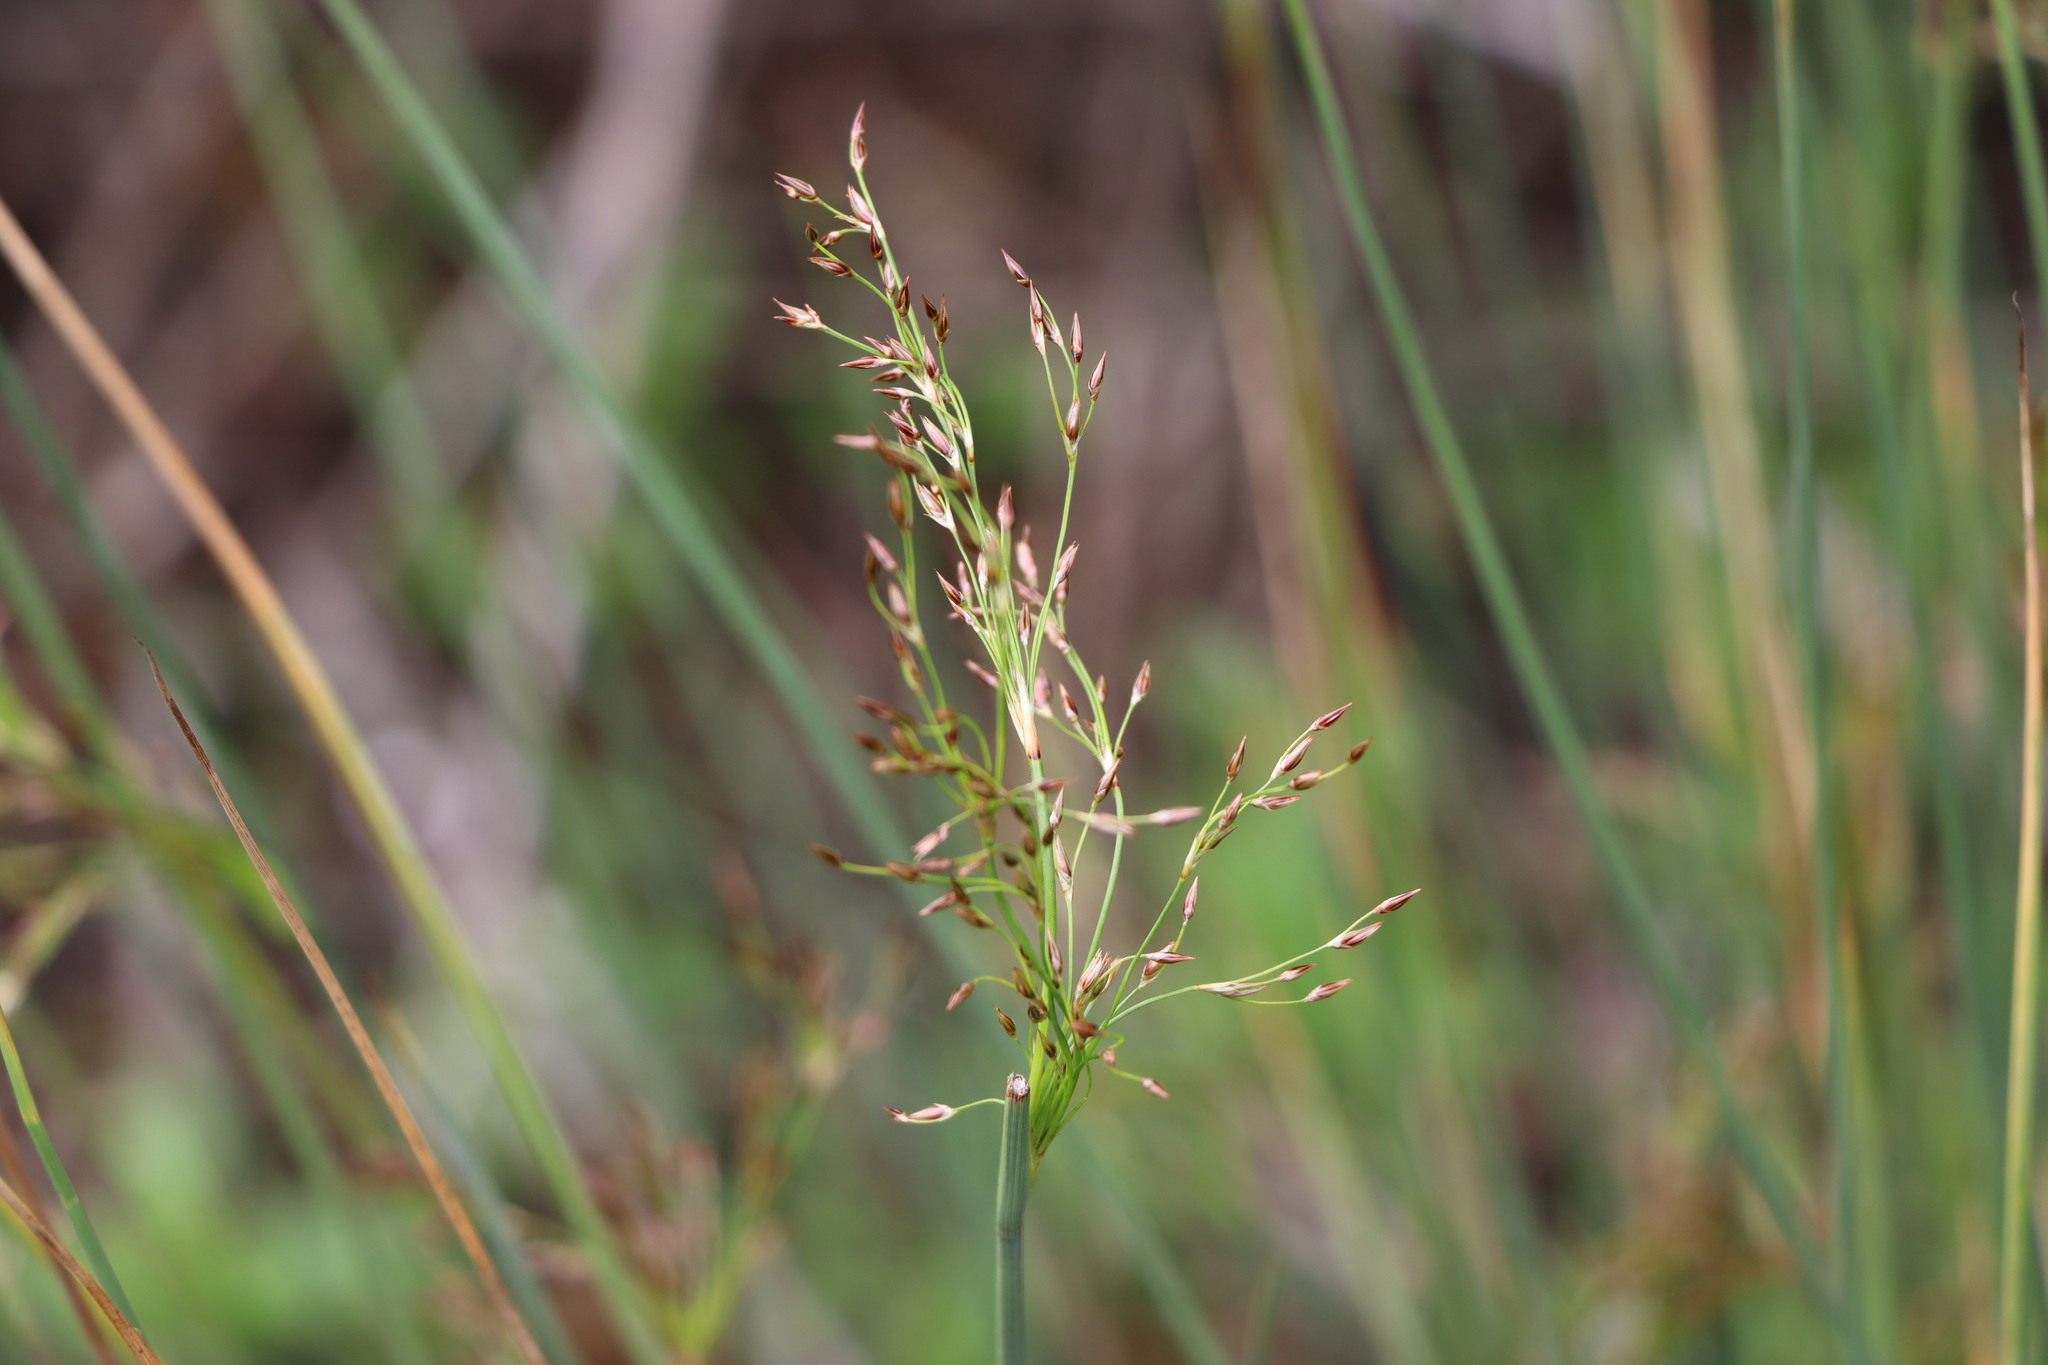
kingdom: Plantae
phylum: Tracheophyta
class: Liliopsida
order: Poales
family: Juncaceae
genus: Juncus
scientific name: Juncus inflexus
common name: Hard rush
